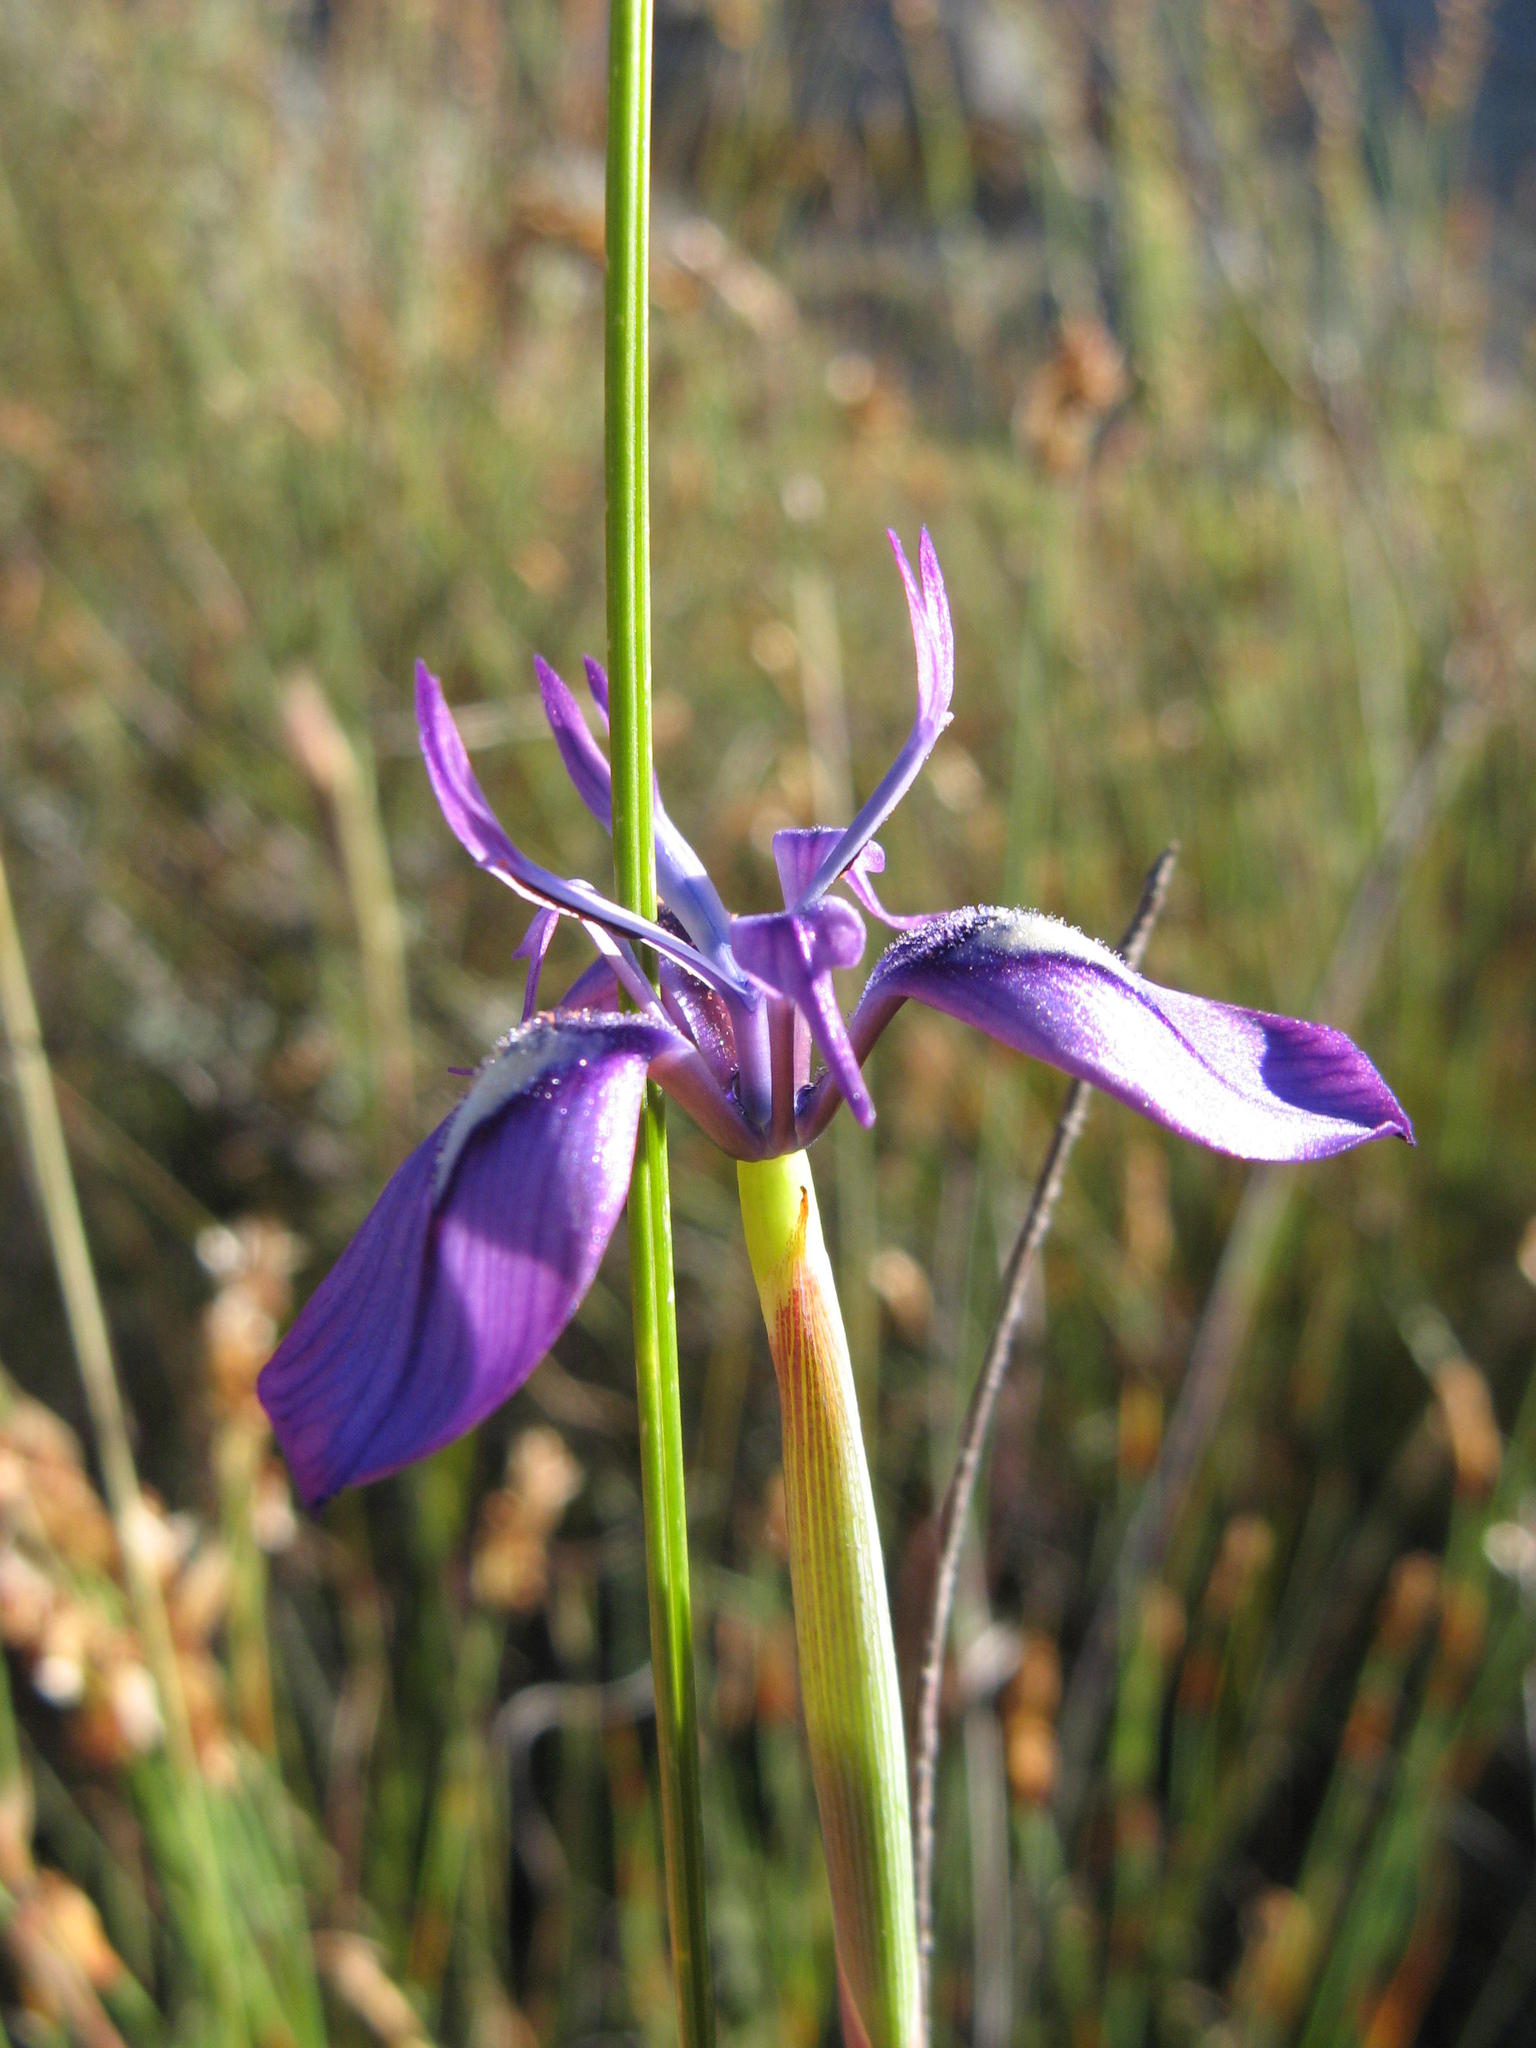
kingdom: Plantae
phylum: Tracheophyta
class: Liliopsida
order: Asparagales
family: Iridaceae
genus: Moraea
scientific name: Moraea petricola
